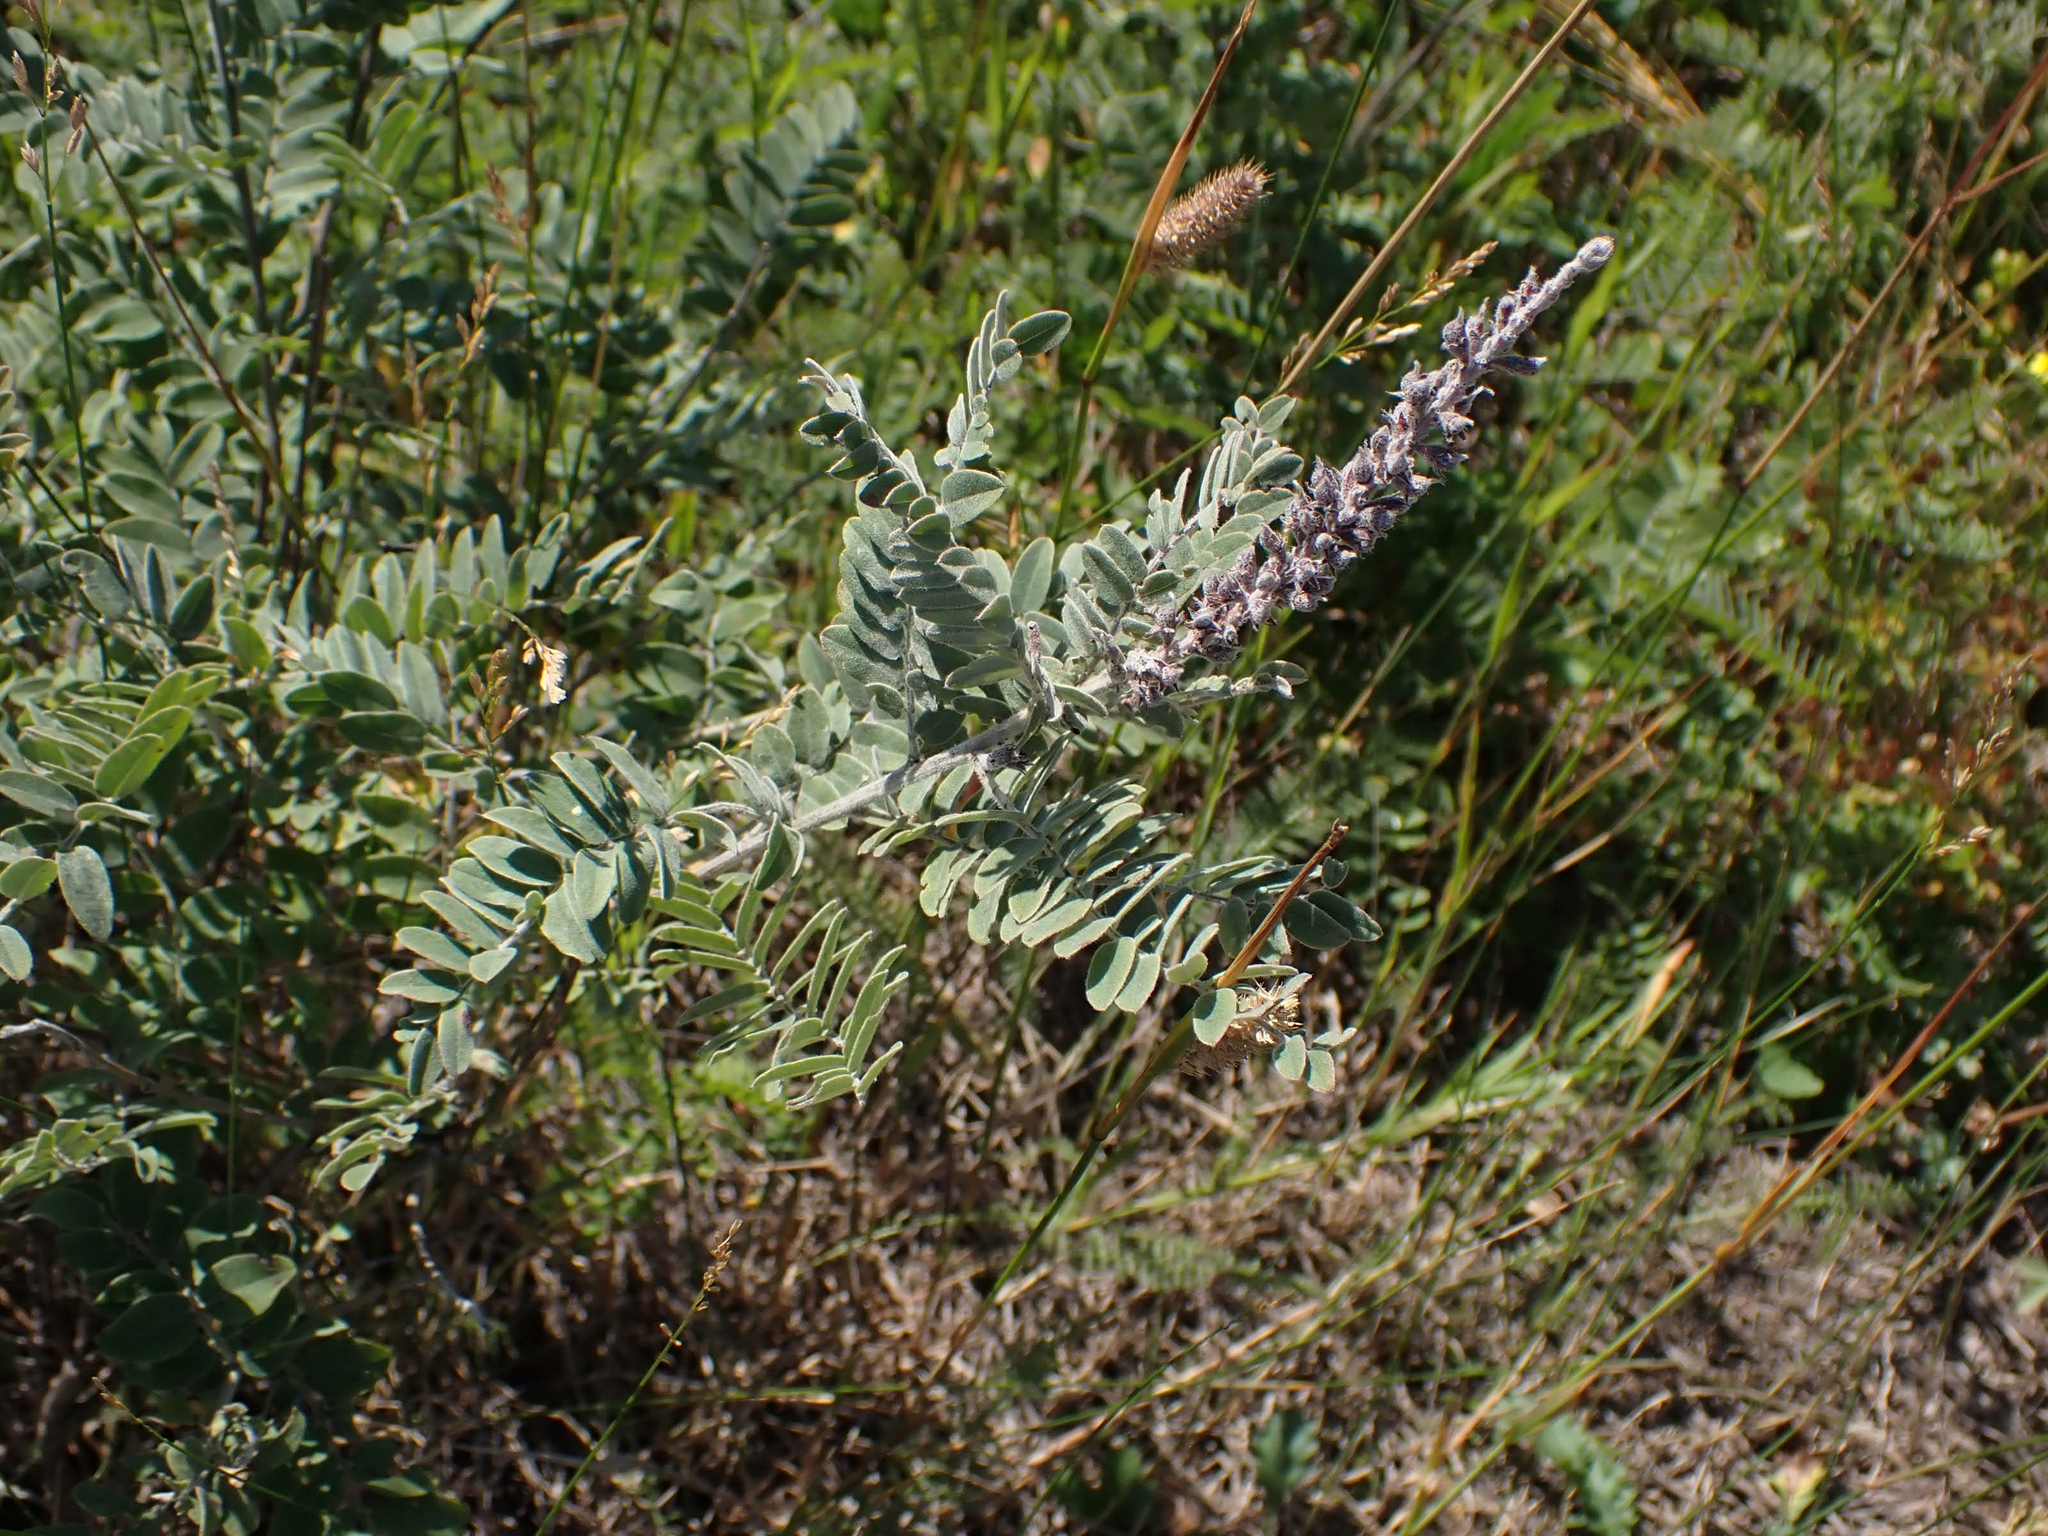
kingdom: Plantae
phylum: Tracheophyta
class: Magnoliopsida
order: Fabales
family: Fabaceae
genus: Amorpha
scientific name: Amorpha canescens
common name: Leadplant
